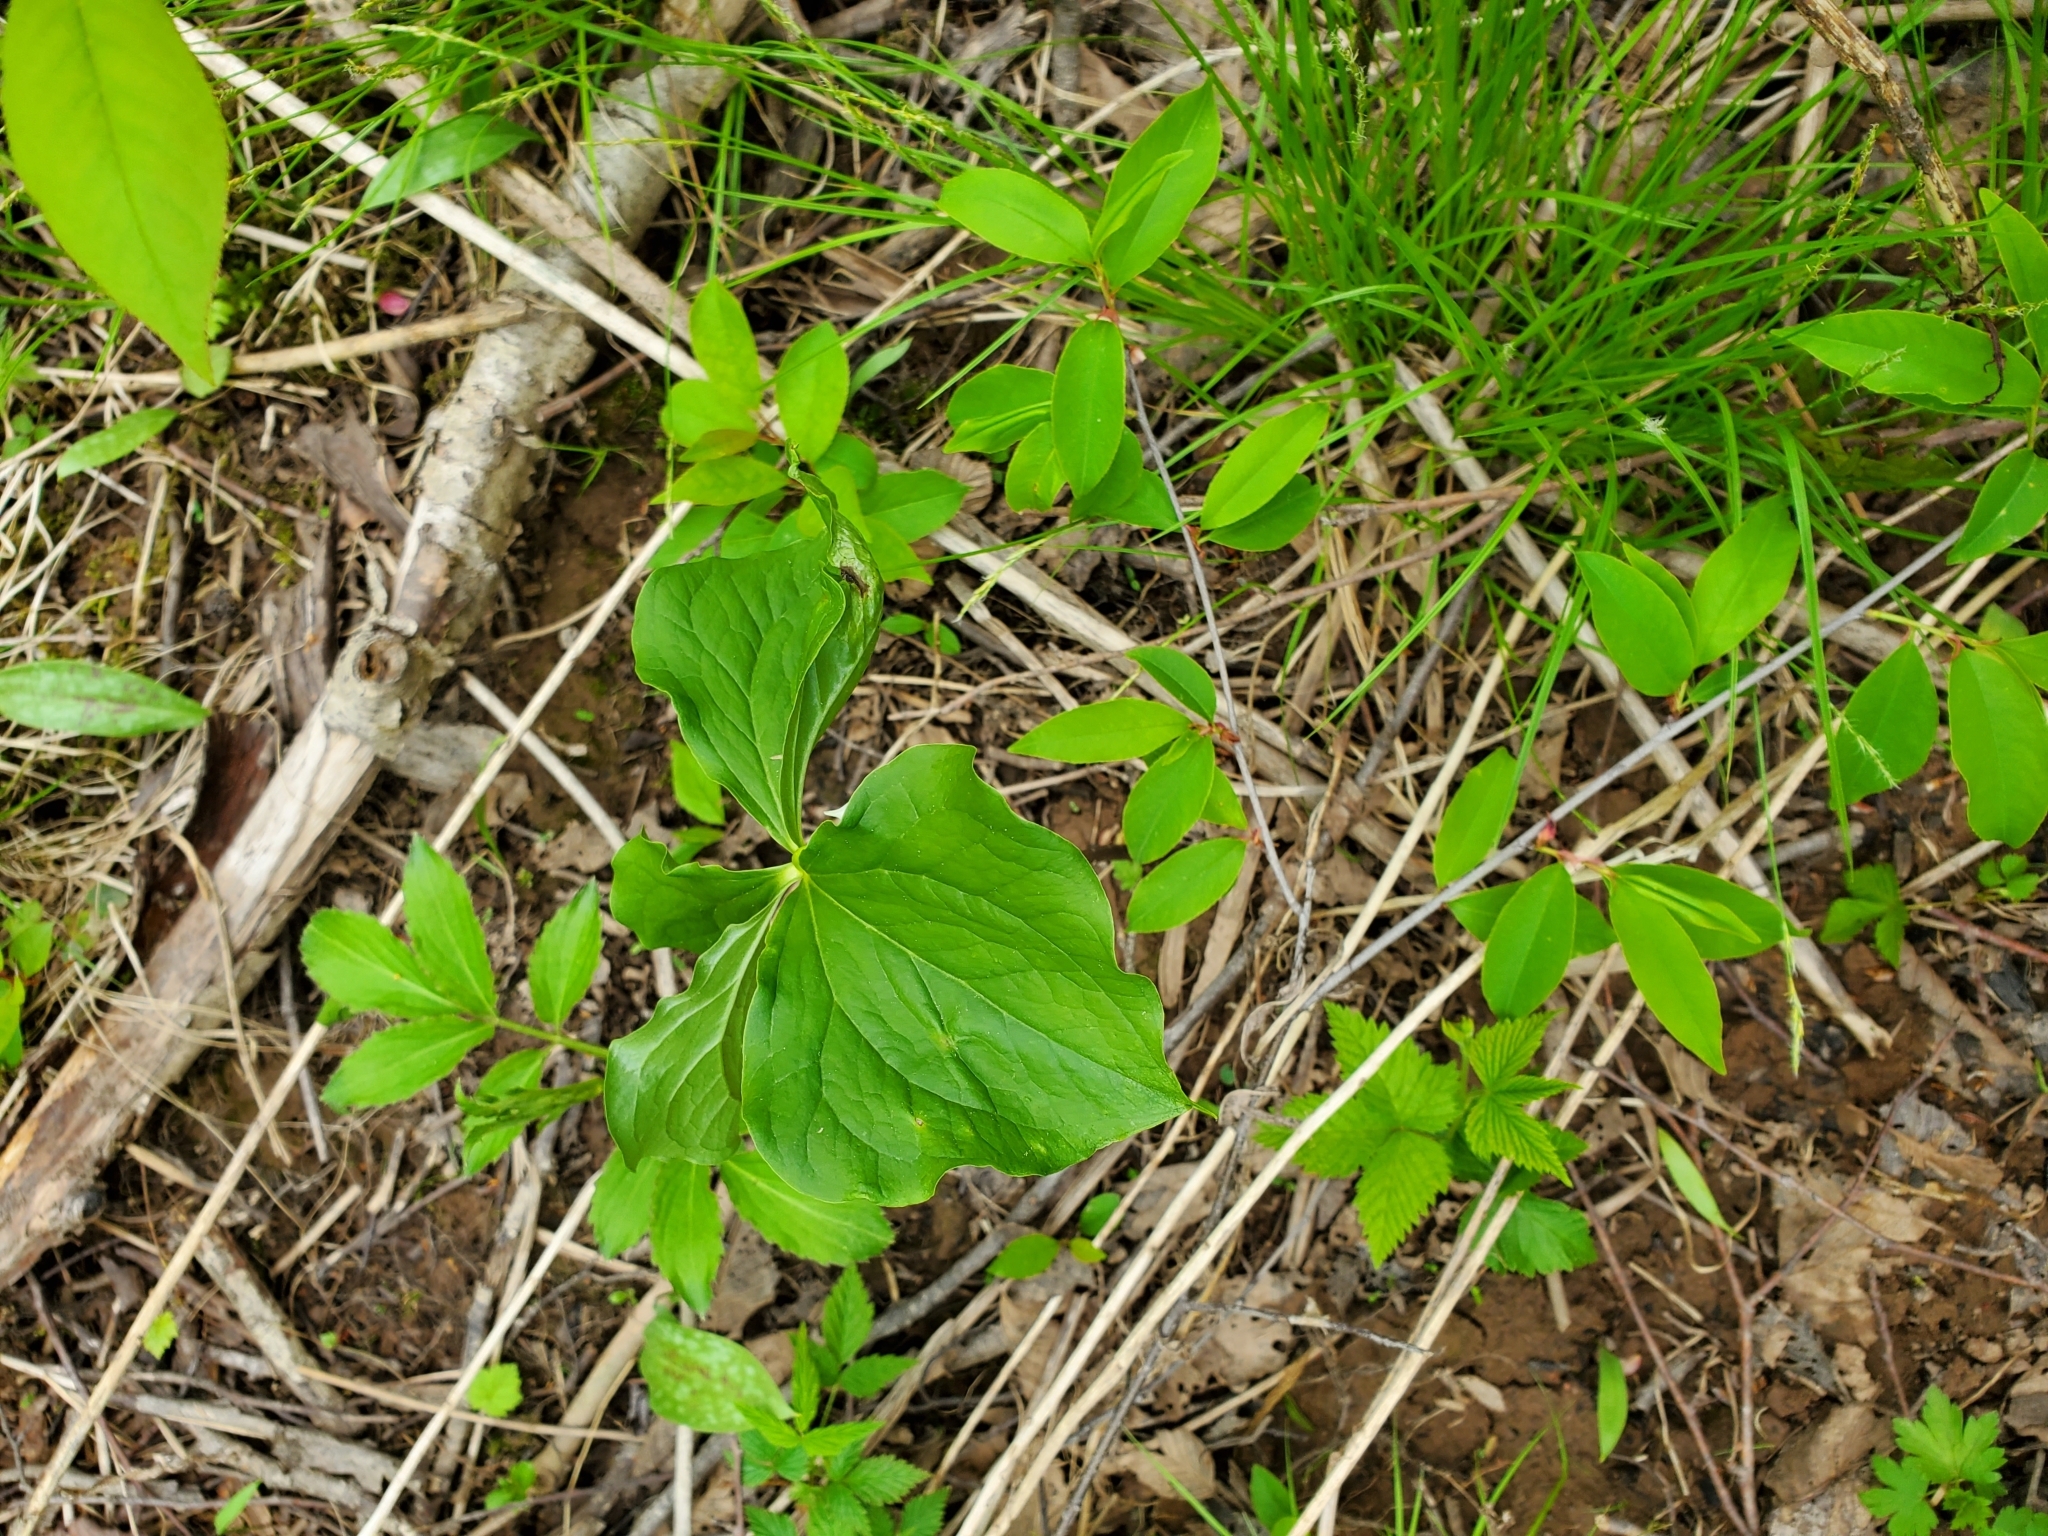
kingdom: Plantae
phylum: Tracheophyta
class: Liliopsida
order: Liliales
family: Melanthiaceae
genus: Trillium
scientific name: Trillium cernuum
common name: Nodding trillium
